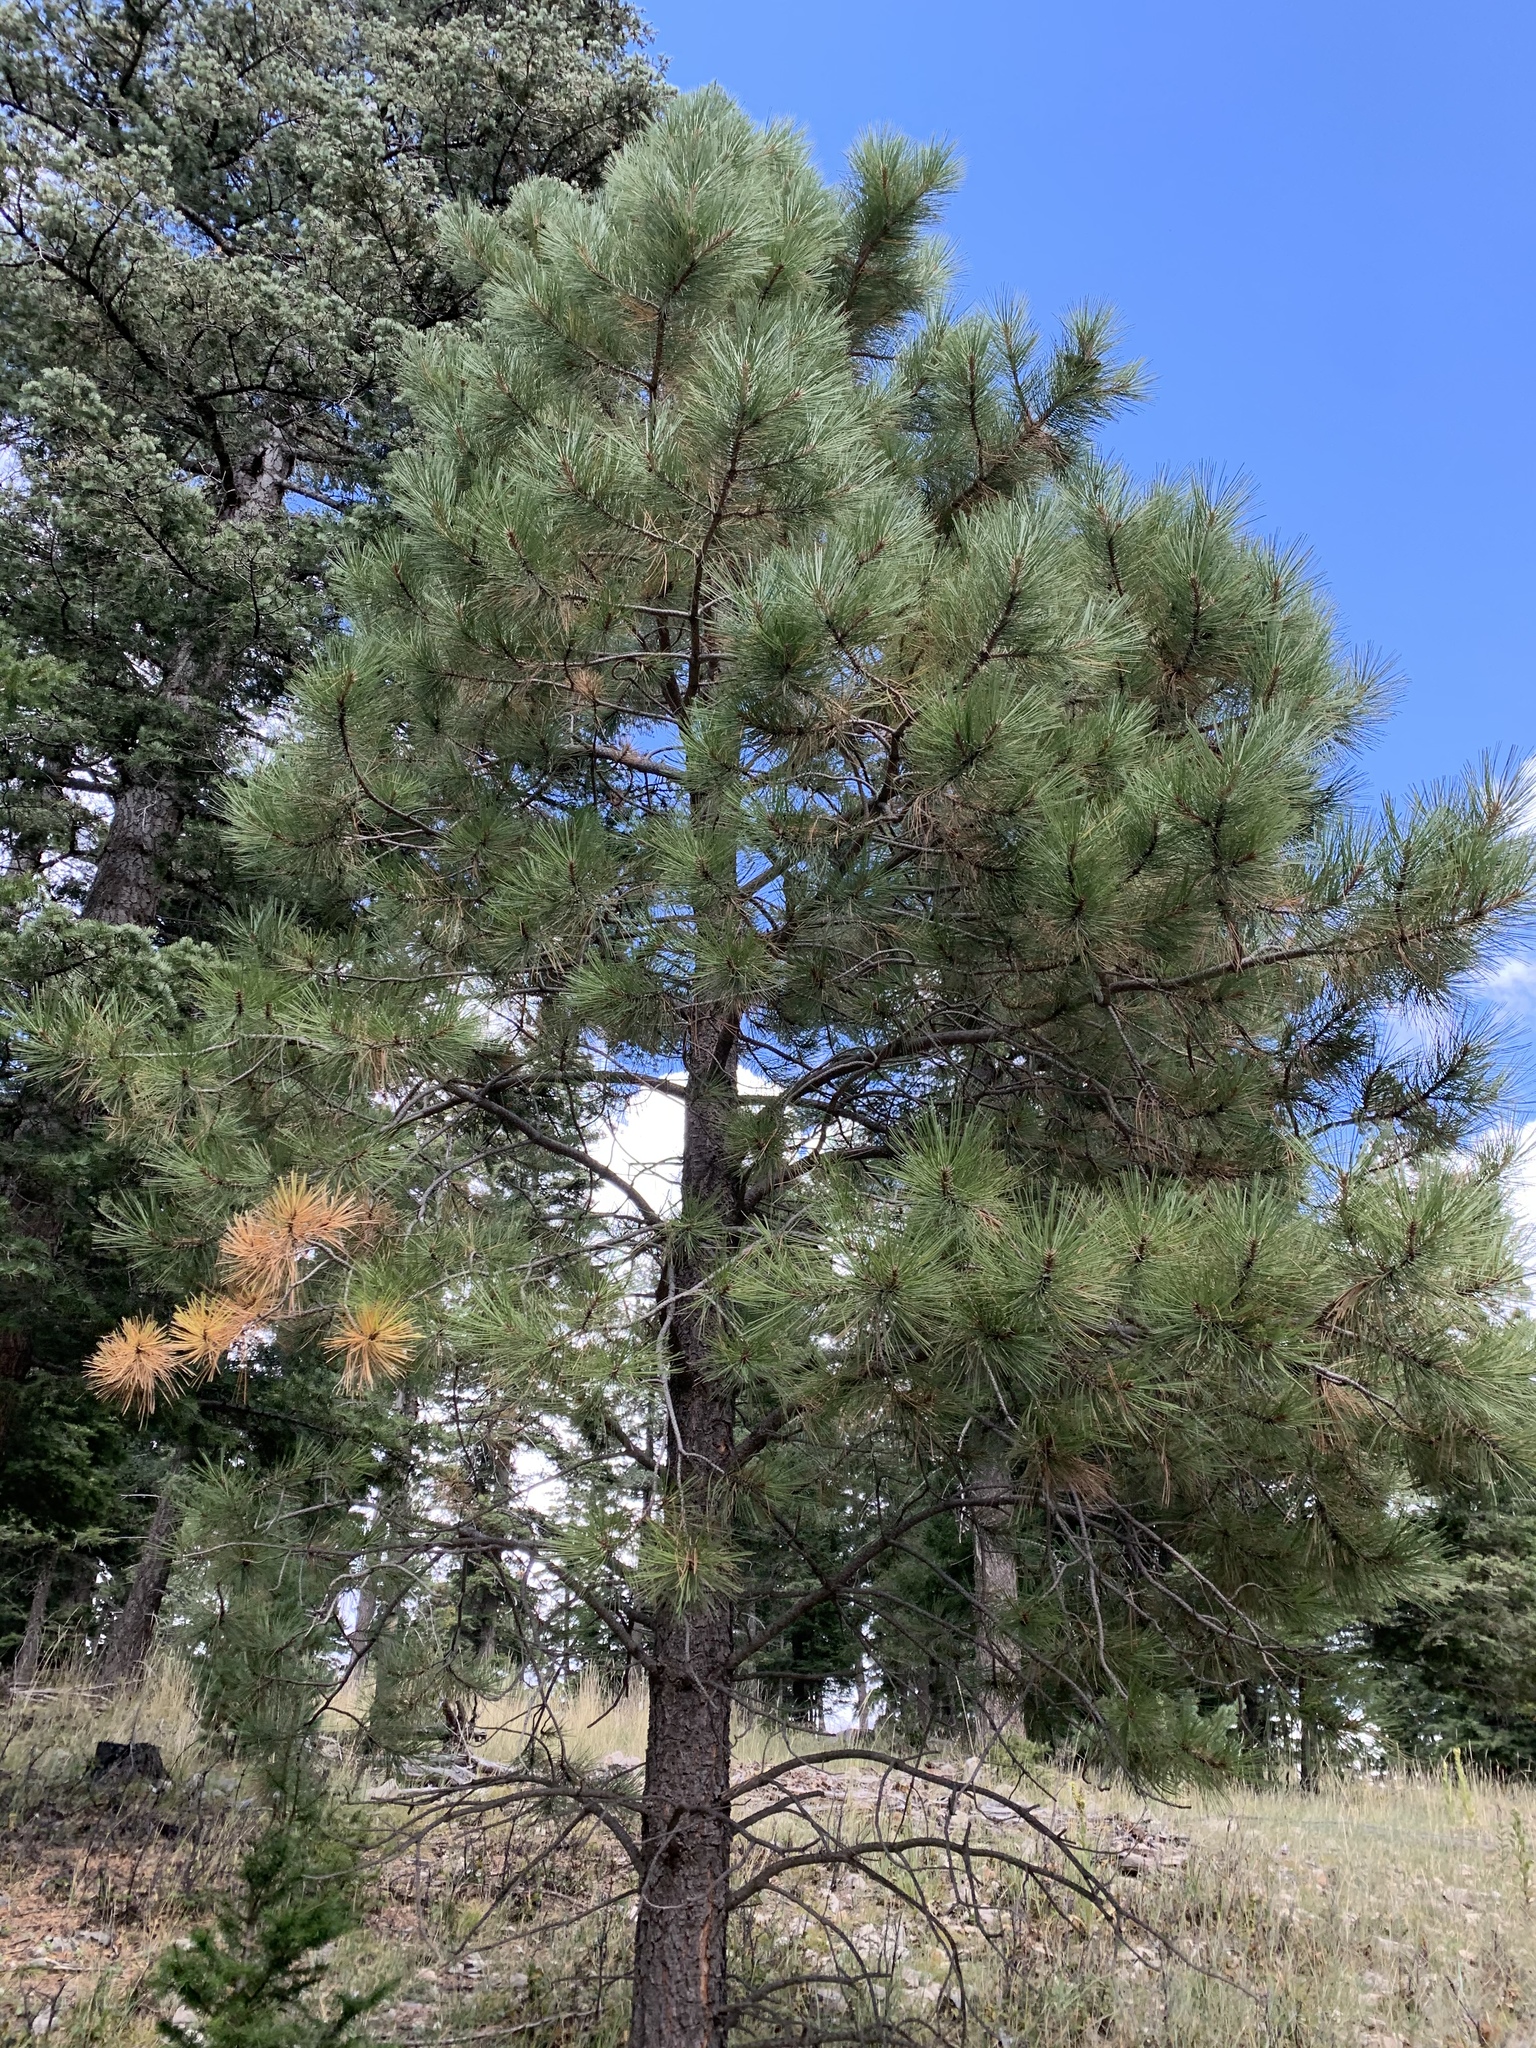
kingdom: Plantae
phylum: Tracheophyta
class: Pinopsida
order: Pinales
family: Pinaceae
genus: Pinus
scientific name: Pinus ponderosa
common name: Western yellow-pine
